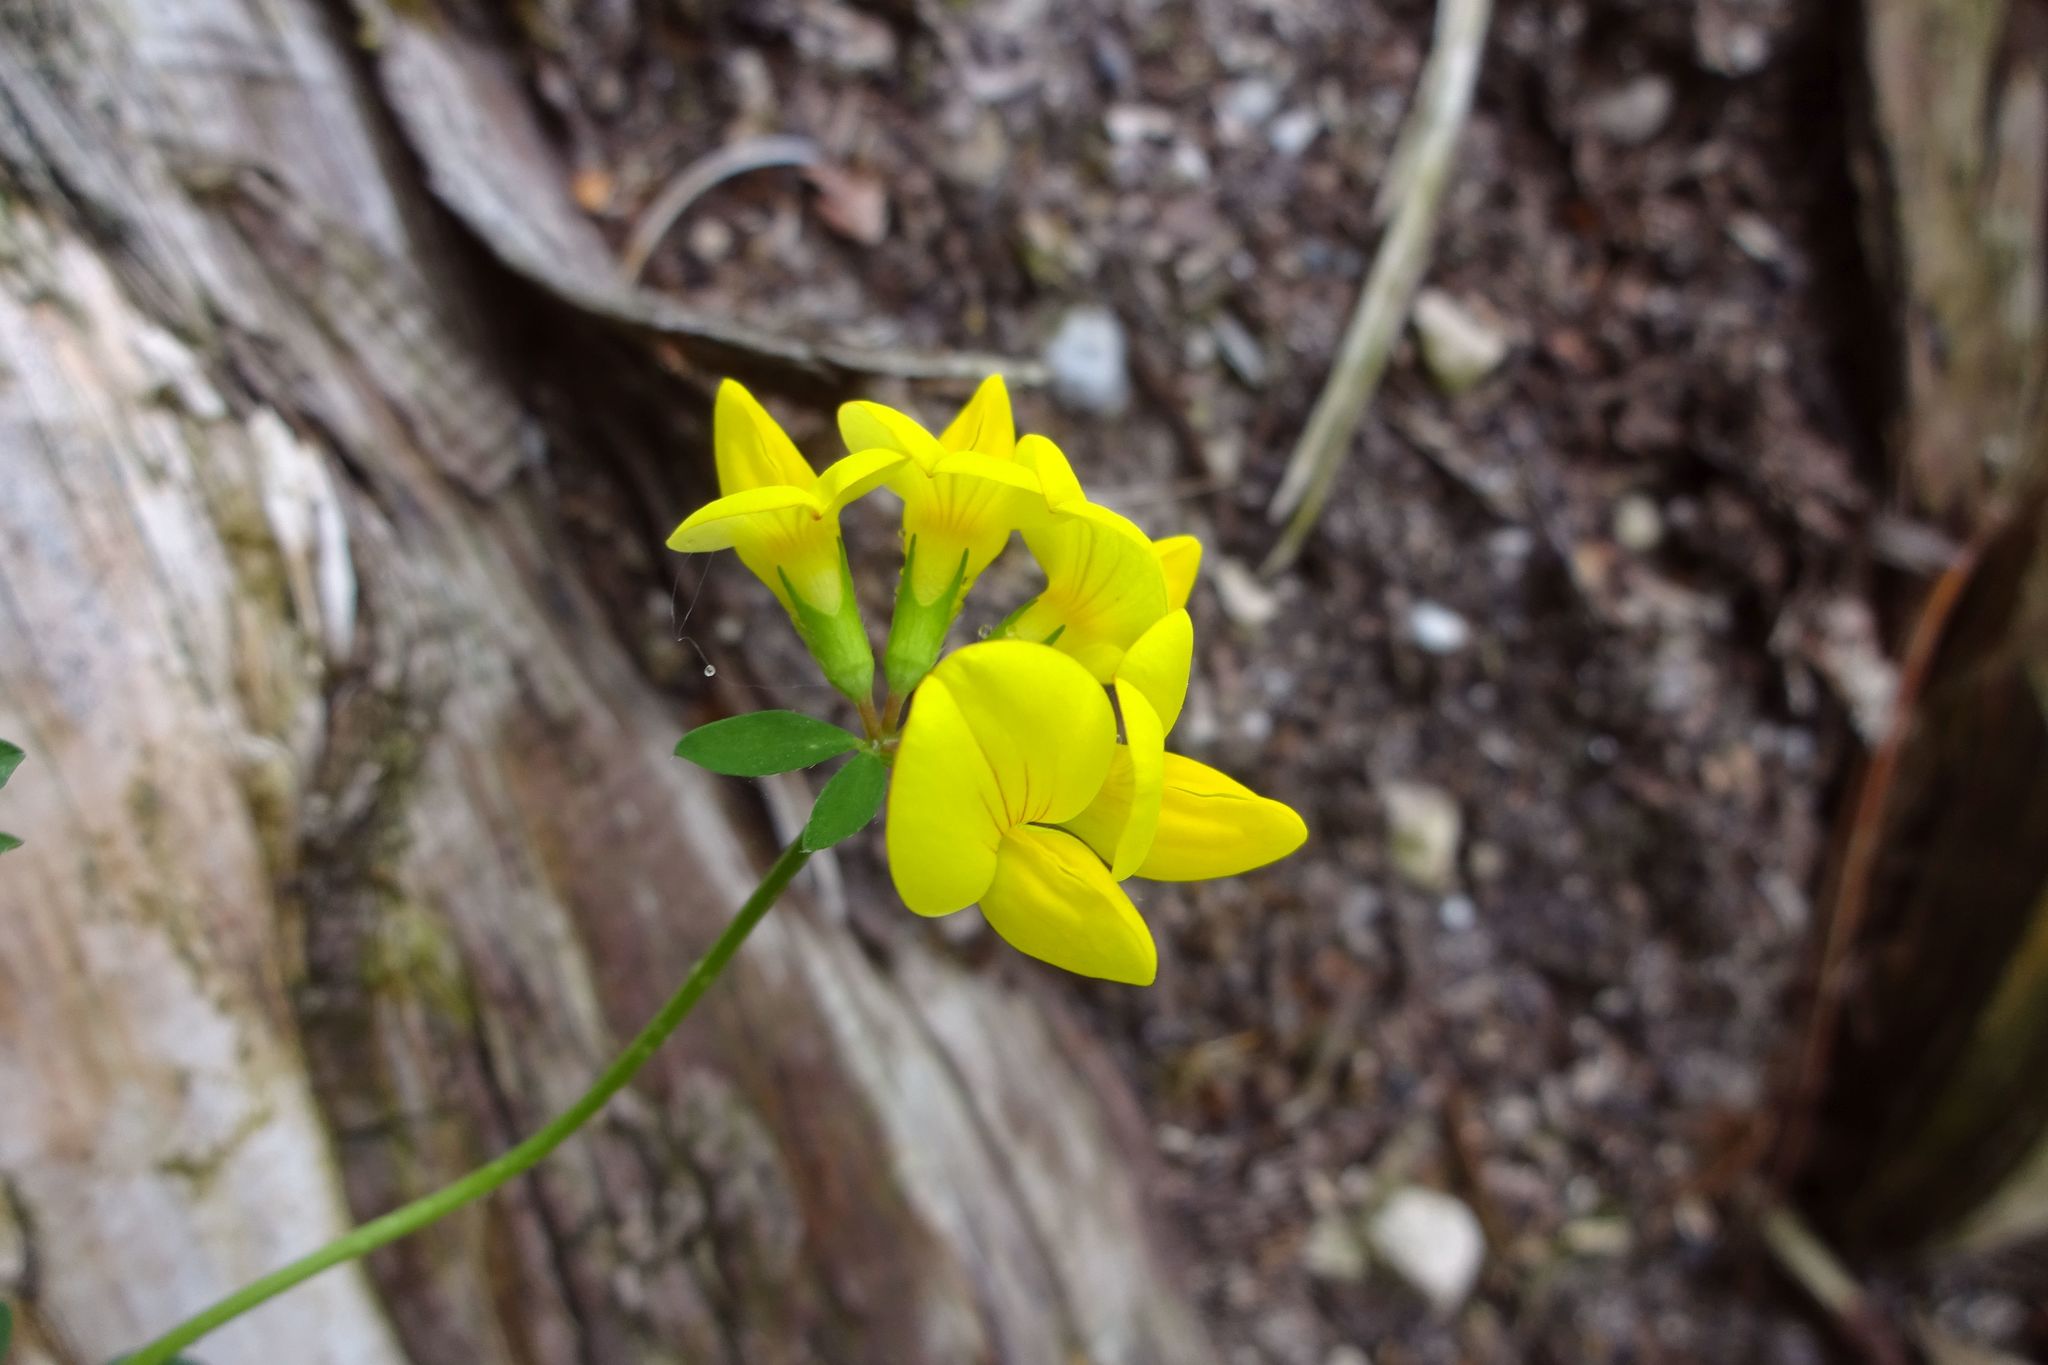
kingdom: Plantae
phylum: Tracheophyta
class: Magnoliopsida
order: Fabales
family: Fabaceae
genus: Lotus
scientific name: Lotus corniculatus
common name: Common bird's-foot-trefoil
